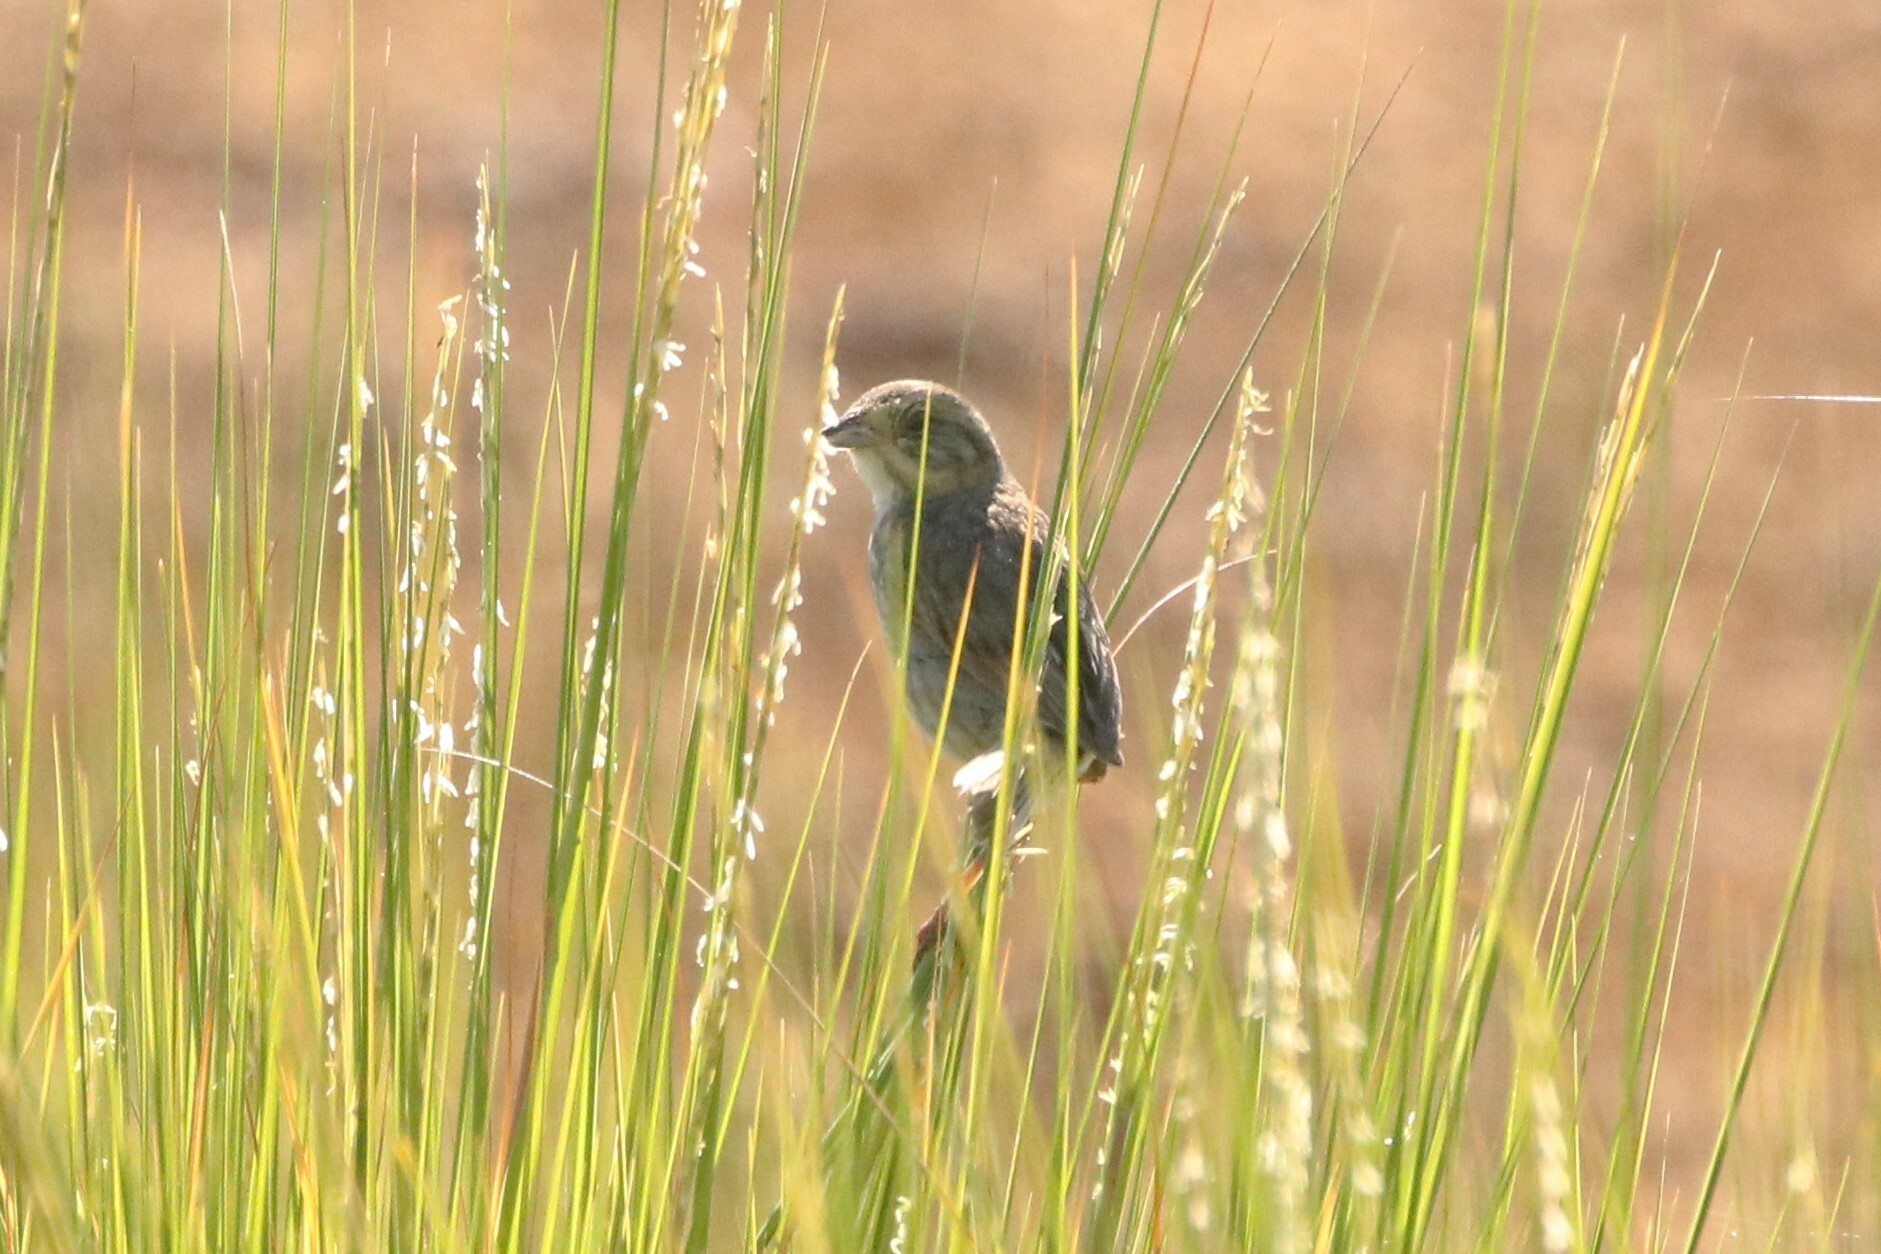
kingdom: Animalia
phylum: Chordata
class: Aves
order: Passeriformes
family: Passerellidae
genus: Ammospiza
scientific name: Ammospiza nelsoni
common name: Nelson's sparrow
